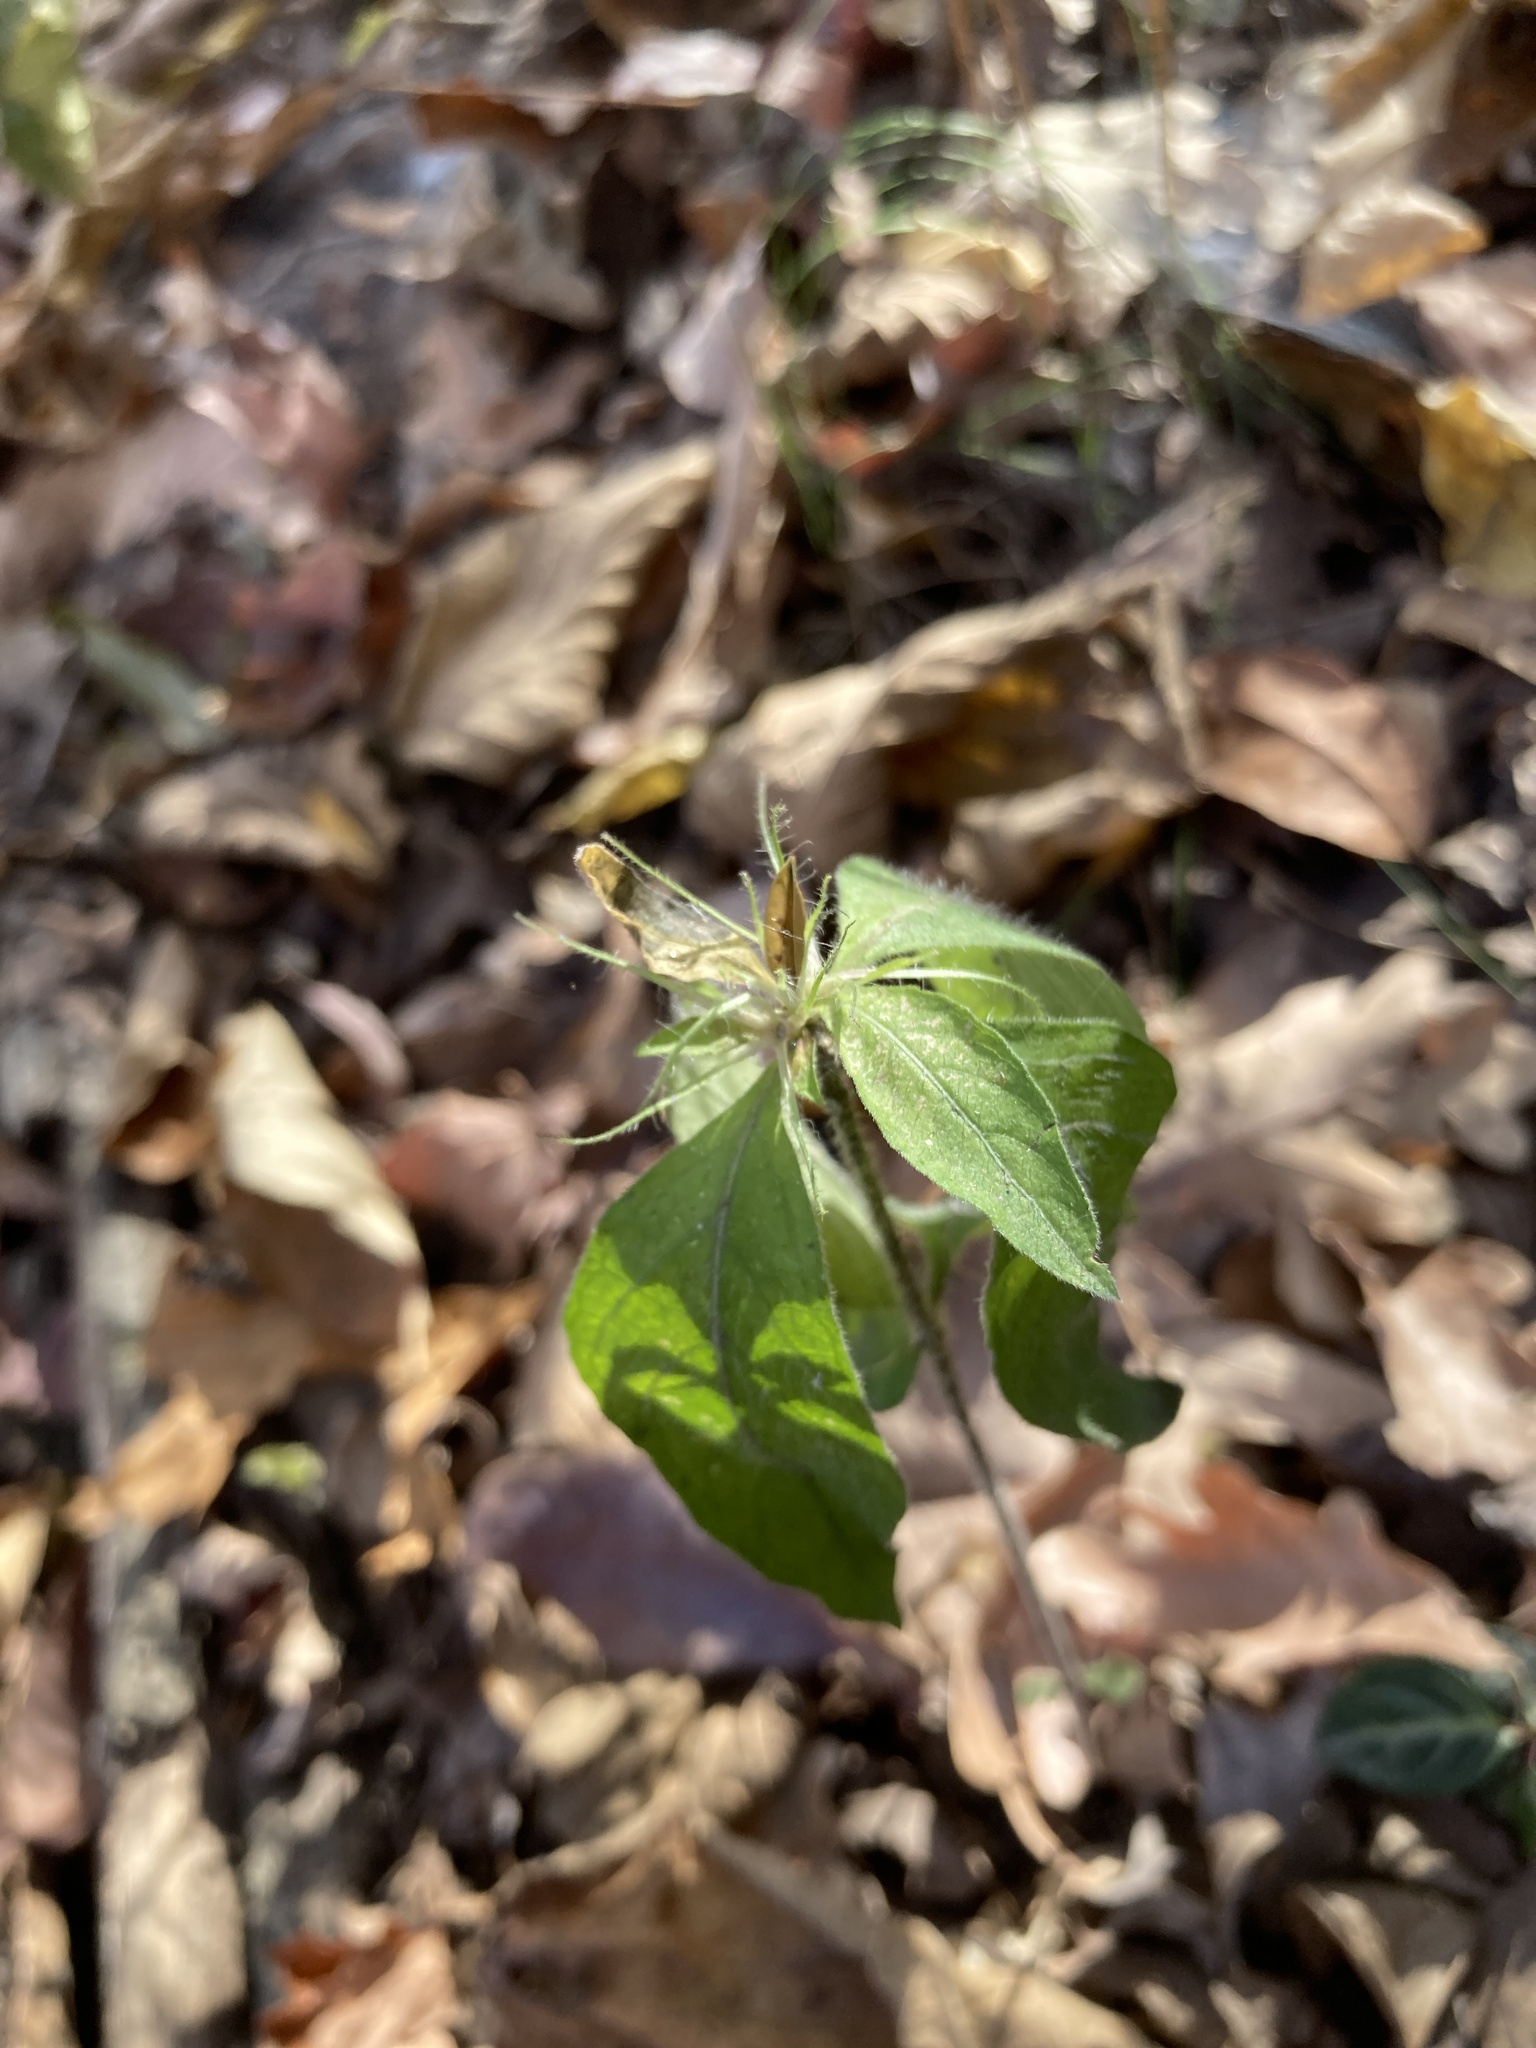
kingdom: Plantae
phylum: Tracheophyta
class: Magnoliopsida
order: Lamiales
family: Acanthaceae
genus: Ruellia
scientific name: Ruellia caroliniensis
